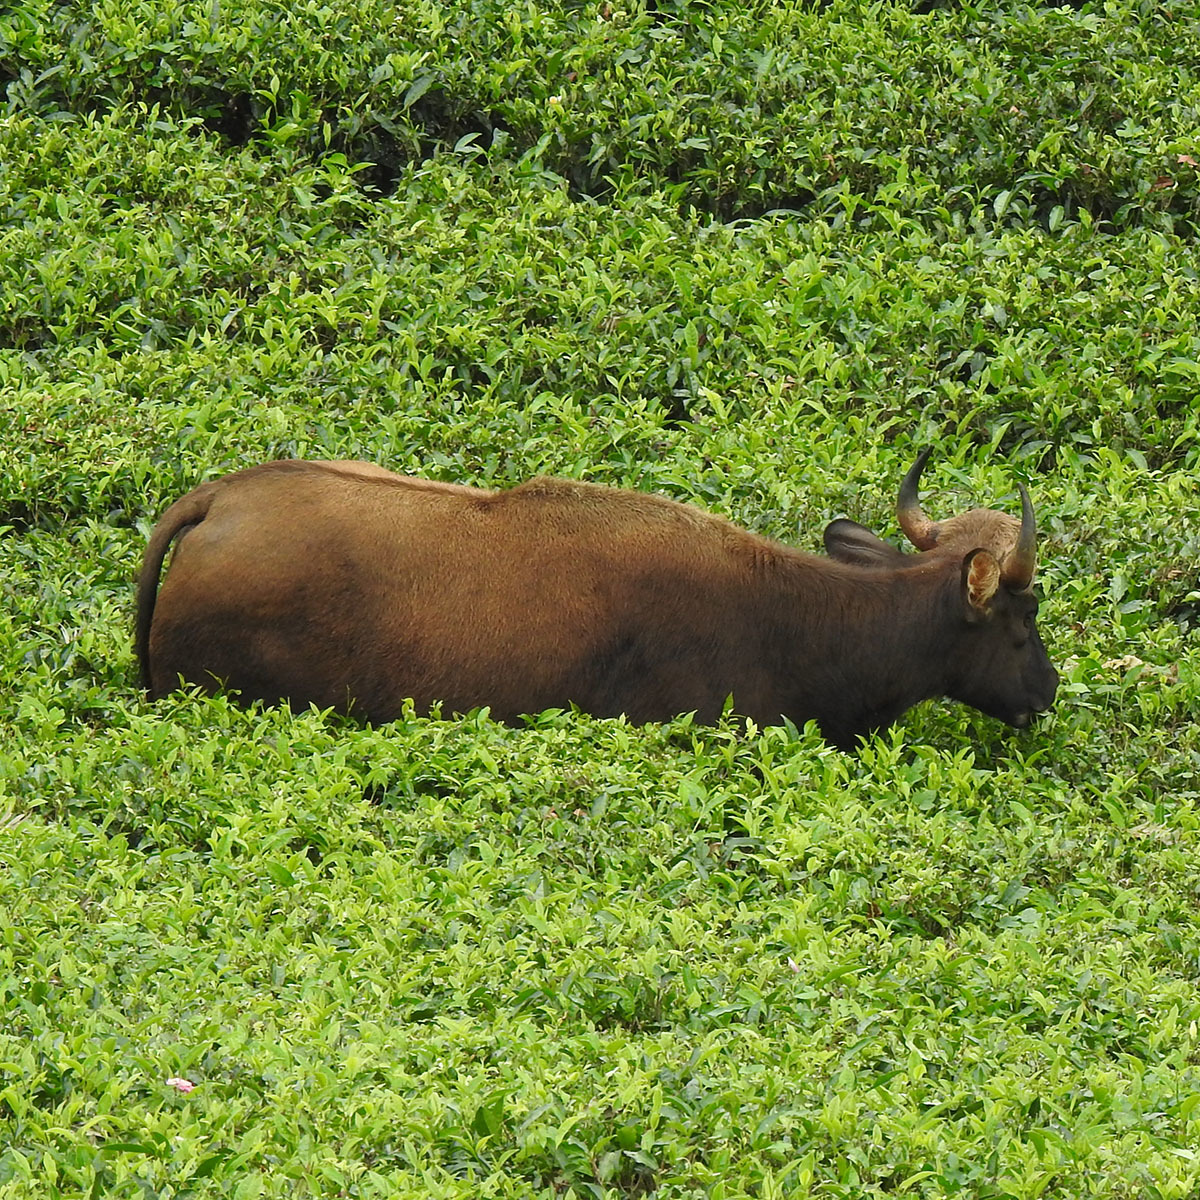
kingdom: Animalia
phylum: Chordata
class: Mammalia
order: Artiodactyla
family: Bovidae
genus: Bos
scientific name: Bos frontalis
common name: Gaur
